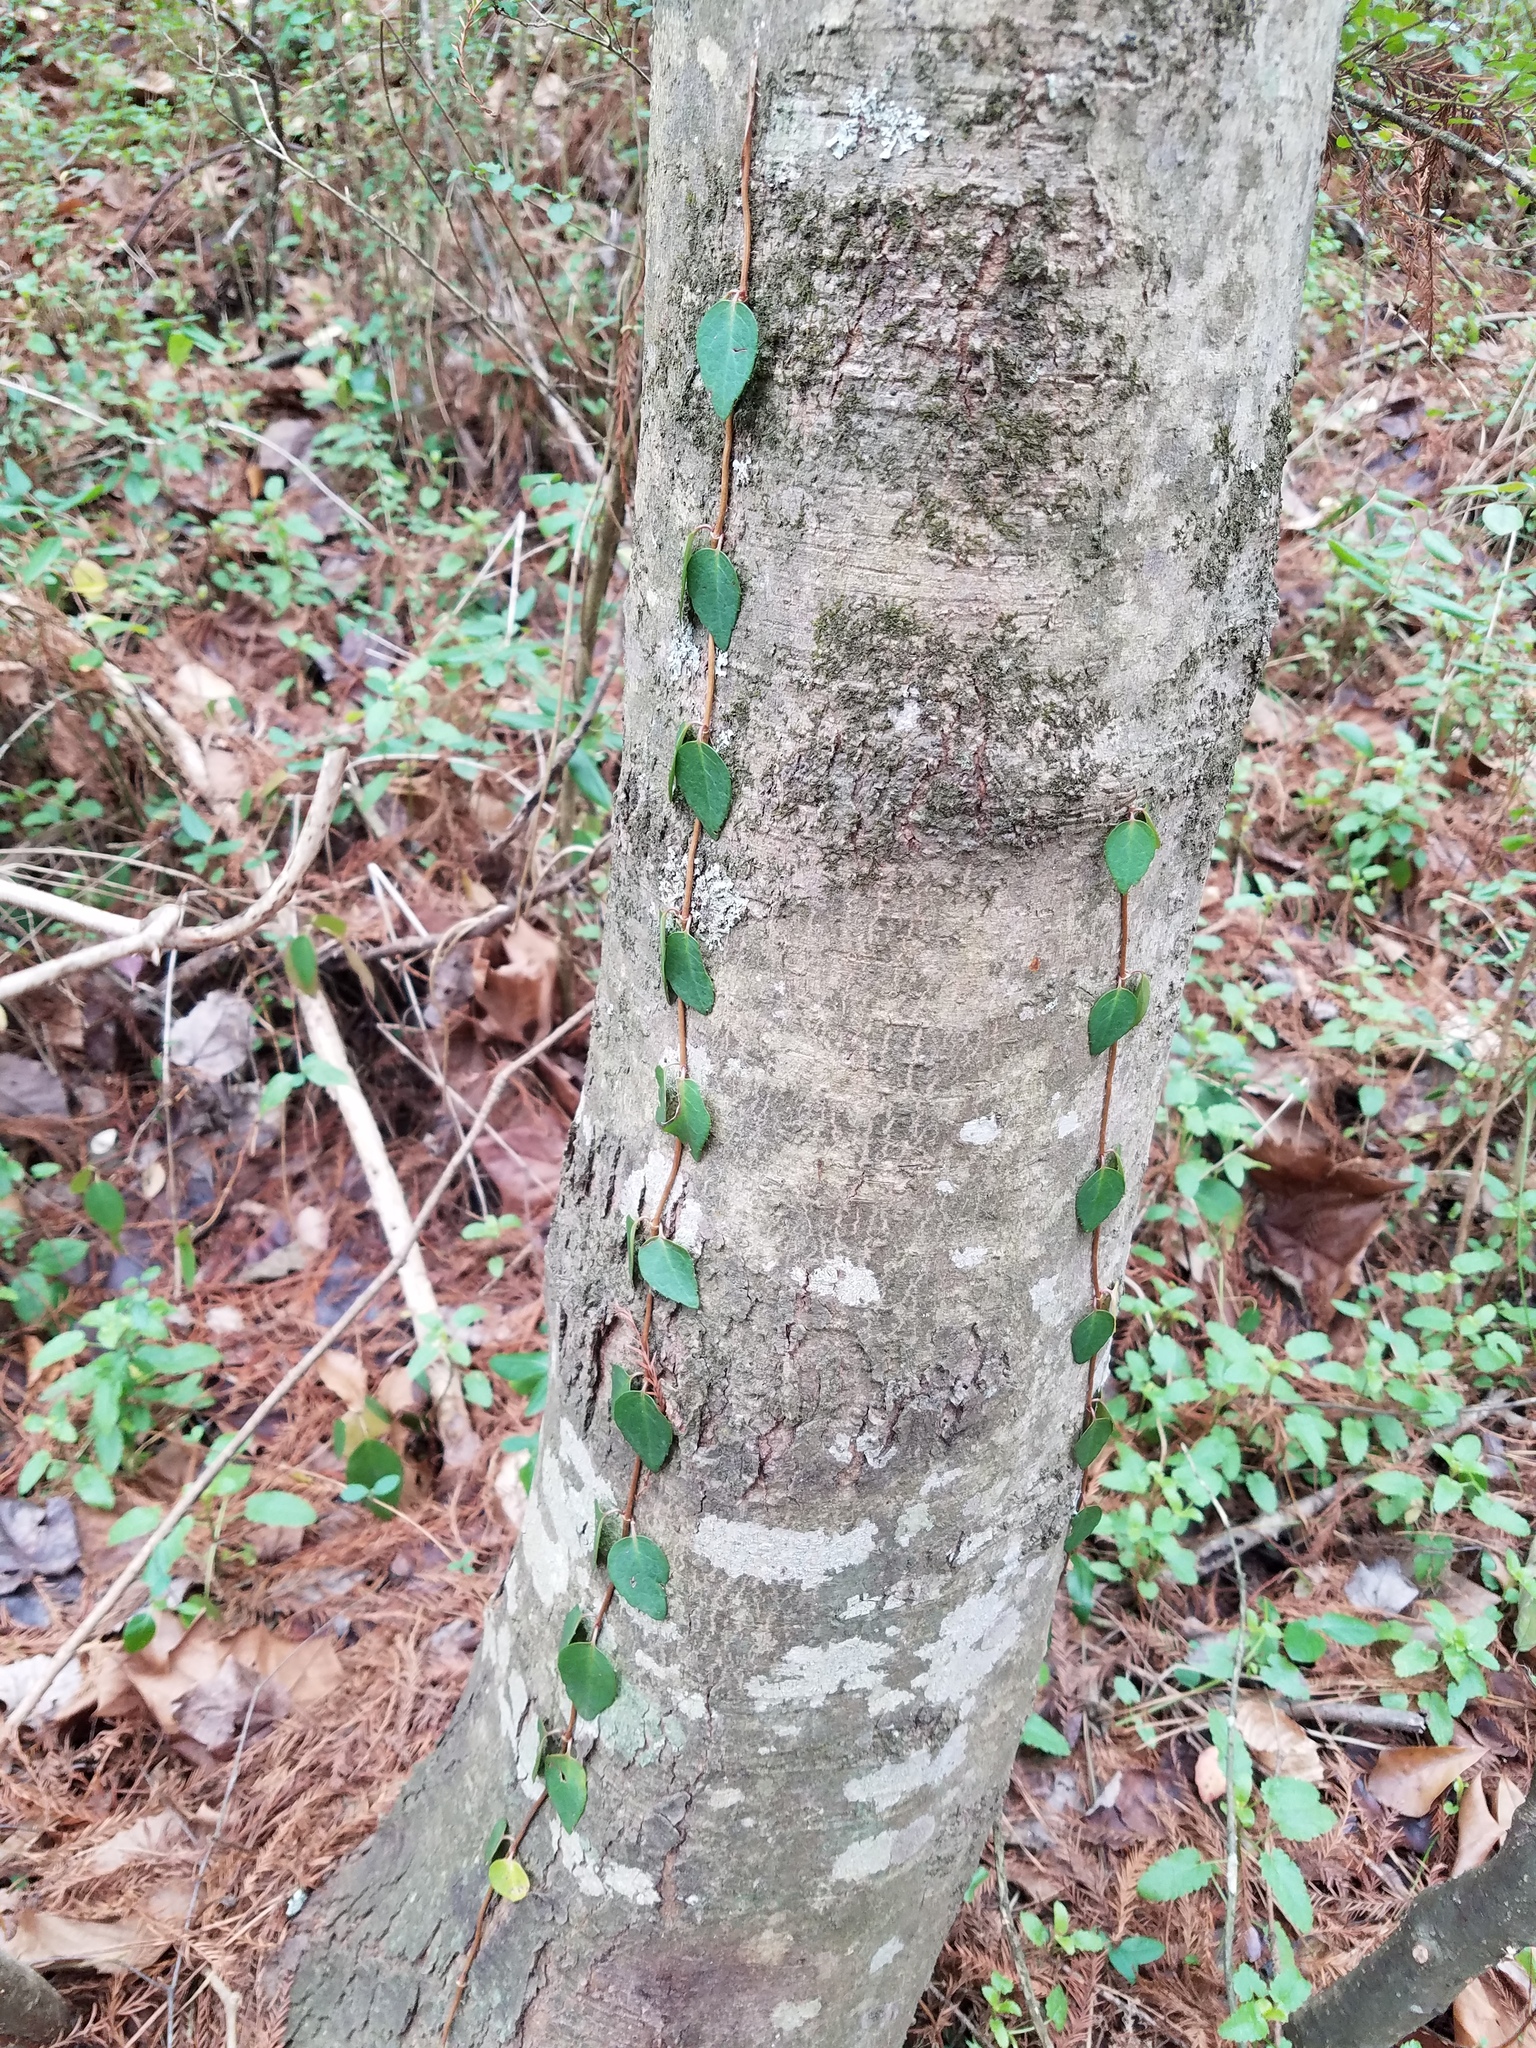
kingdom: Plantae
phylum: Tracheophyta
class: Magnoliopsida
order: Cornales
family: Hydrangeaceae
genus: Hydrangea
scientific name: Hydrangea barbara
